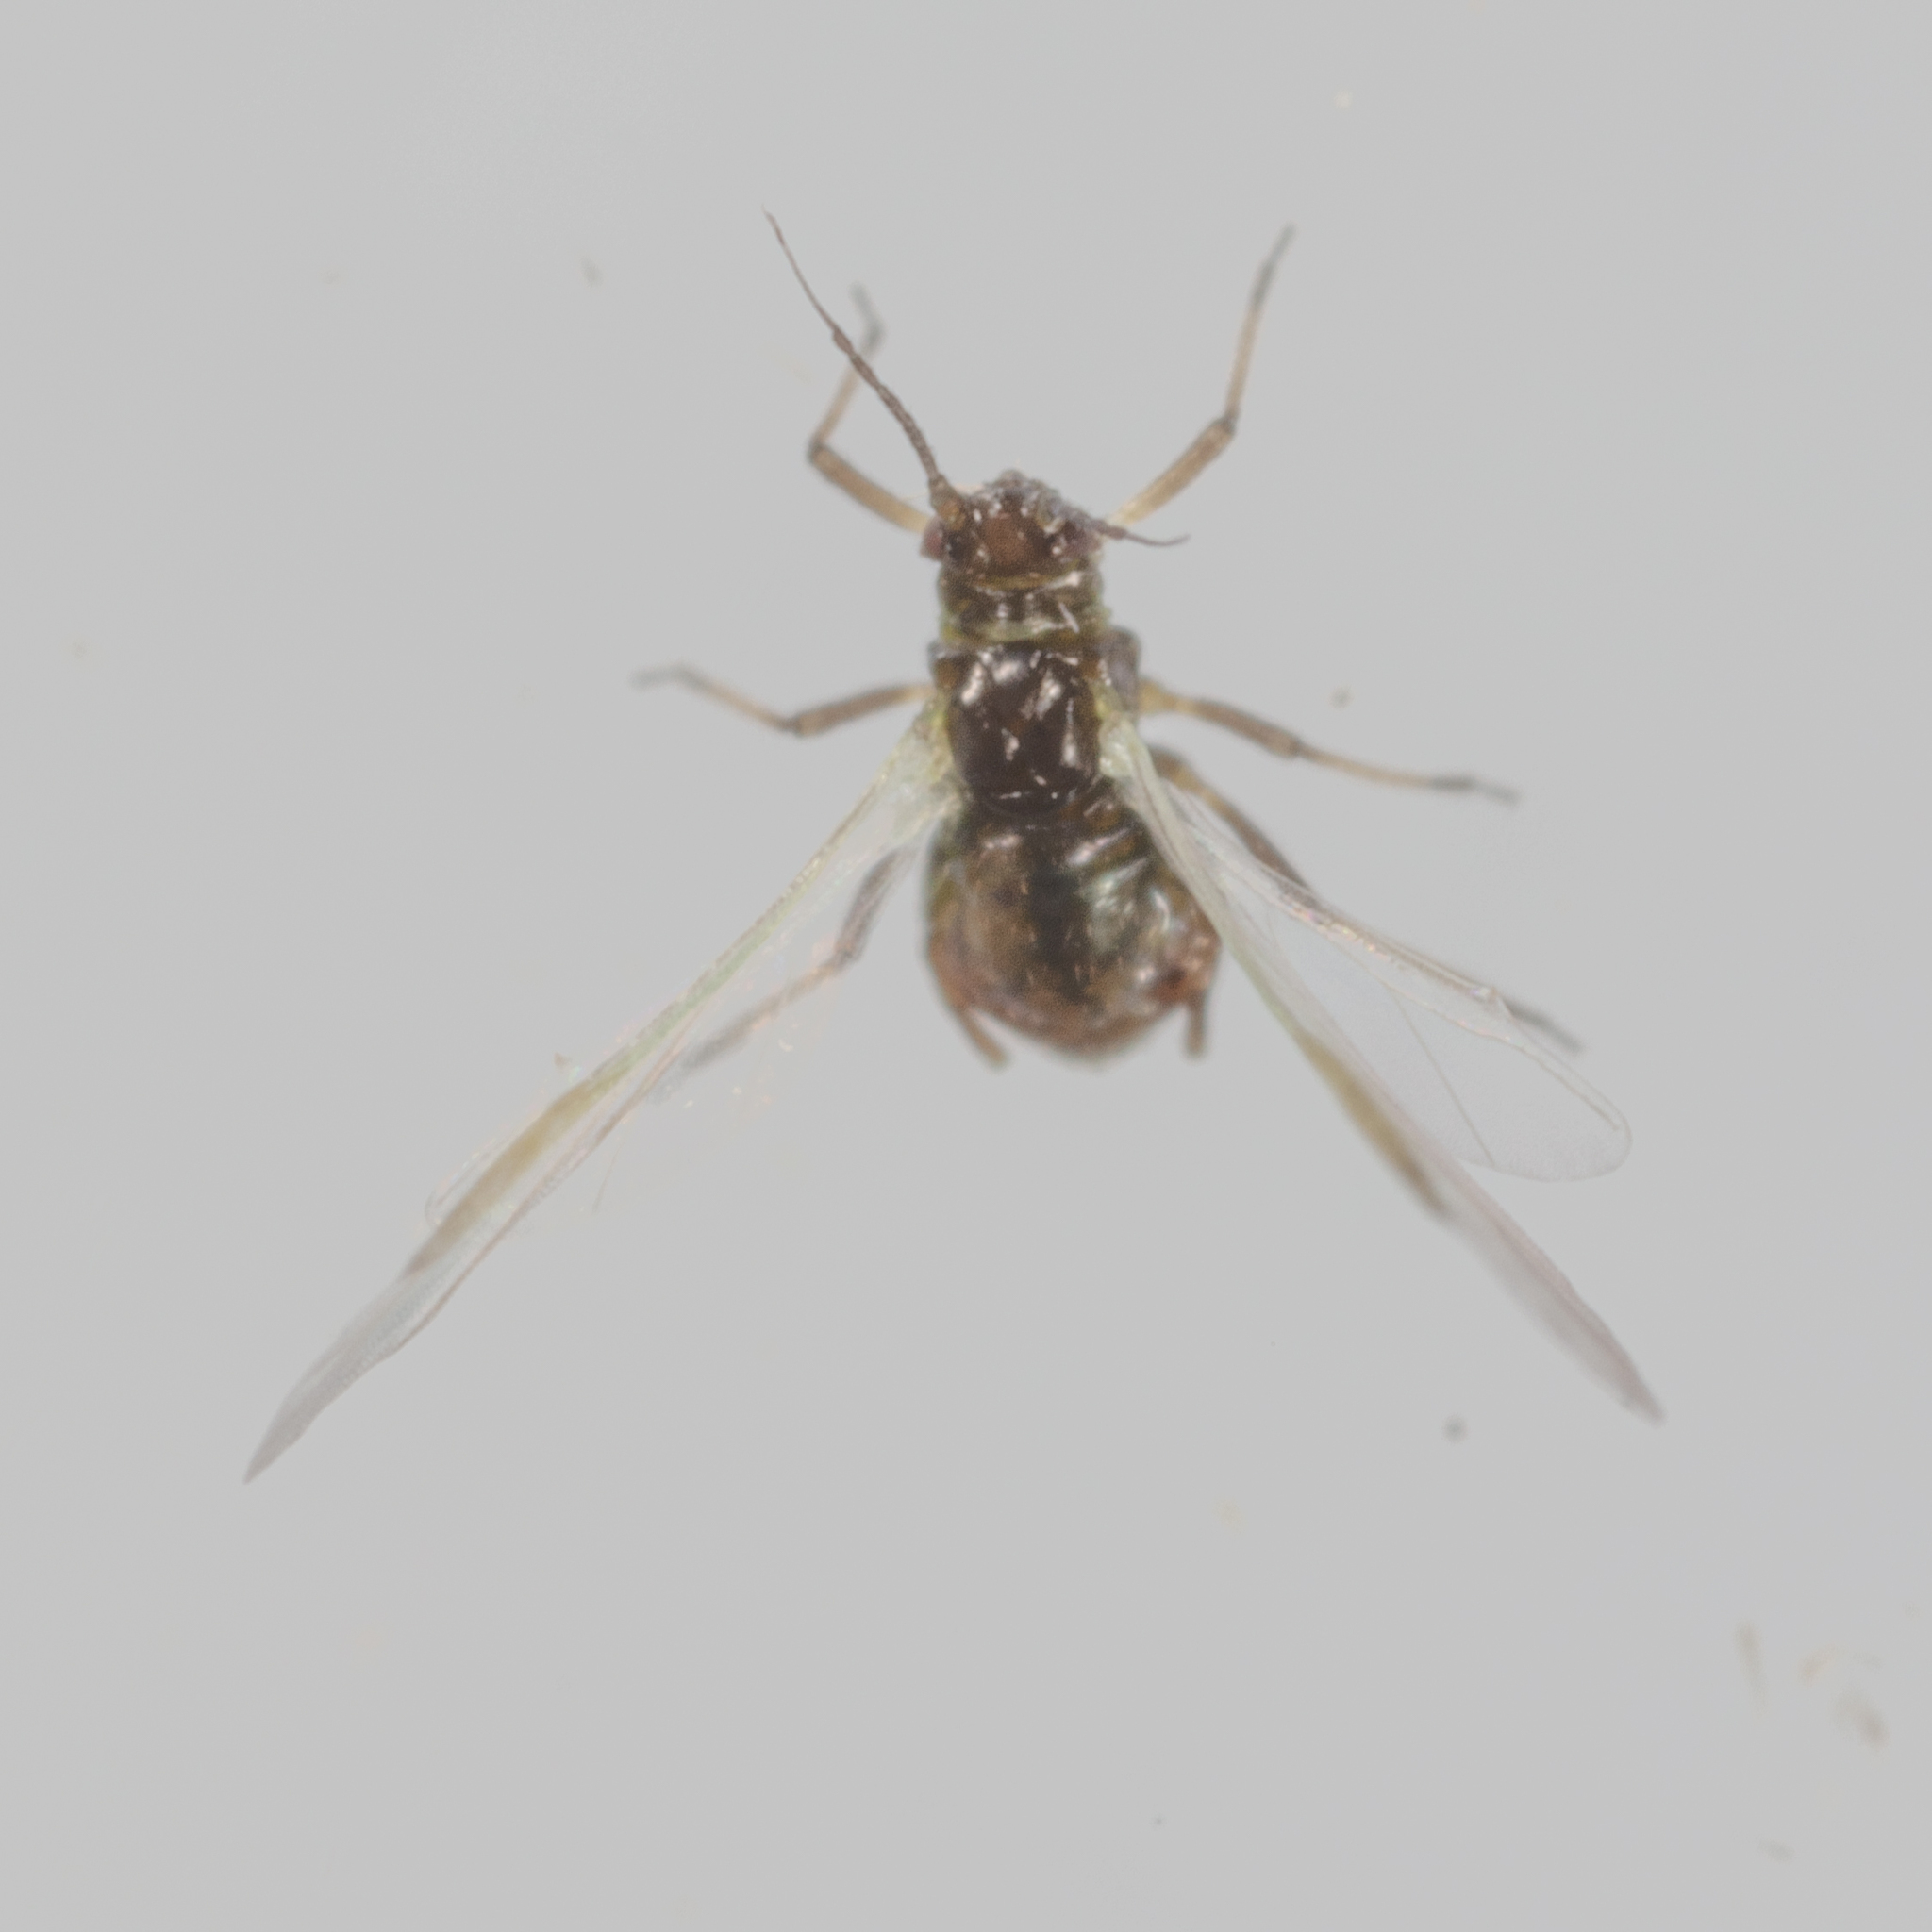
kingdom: Animalia
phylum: Arthropoda
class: Insecta
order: Hemiptera
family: Aphididae
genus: Rhopalosiphum
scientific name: Rhopalosiphum rufiabdominalis
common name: Aphid
